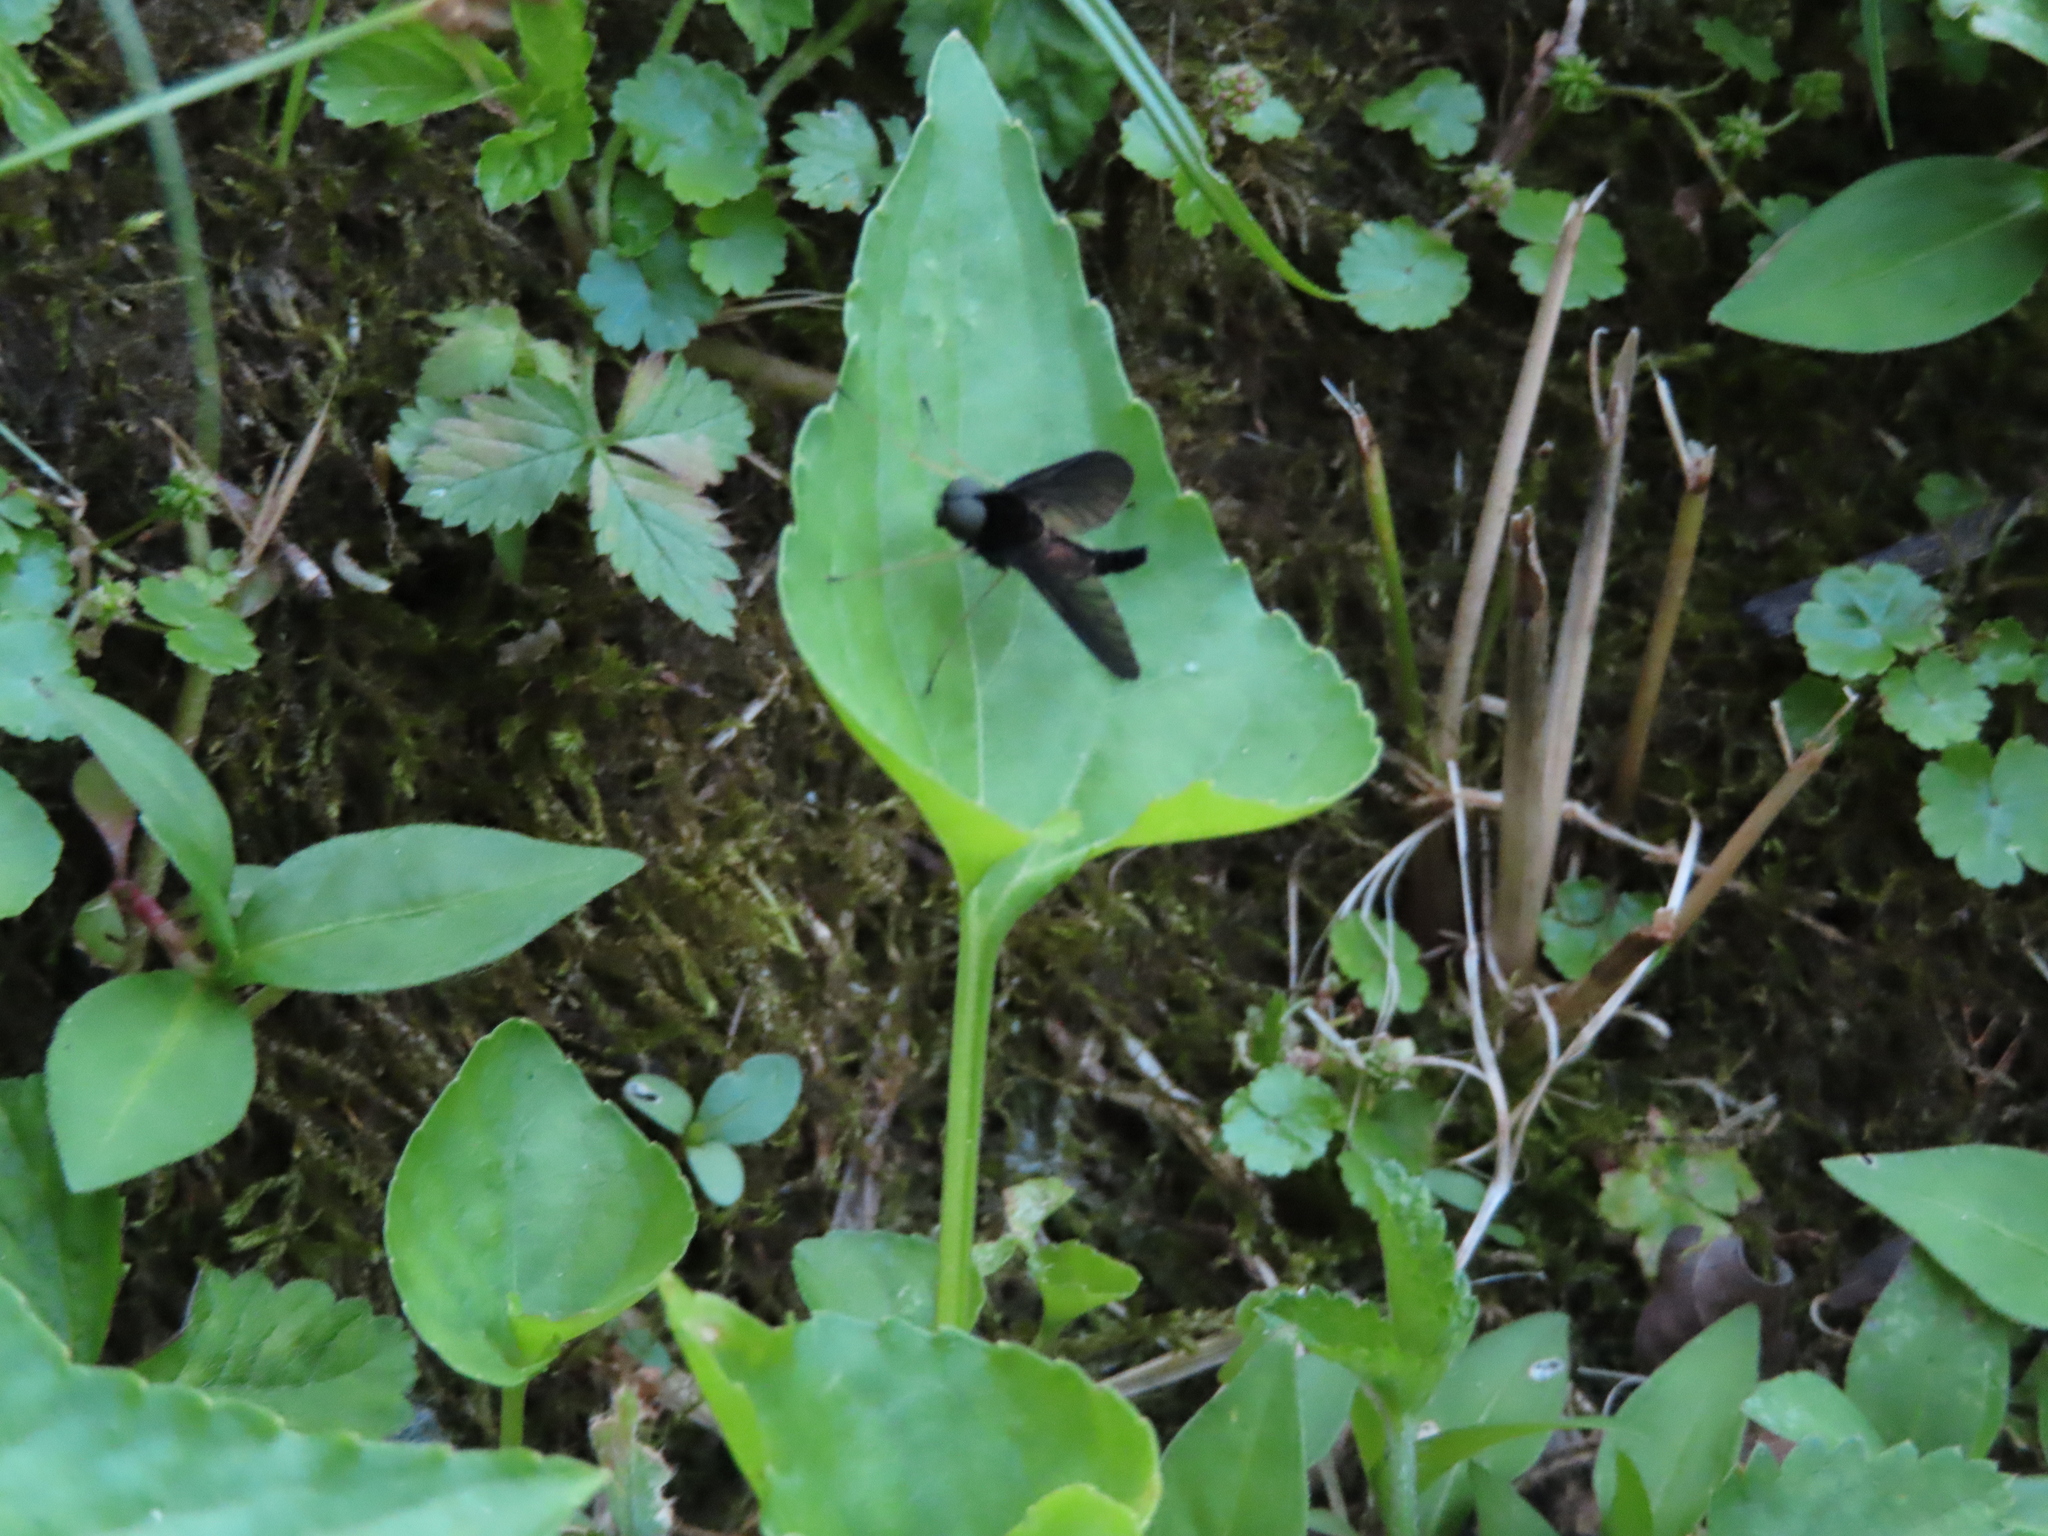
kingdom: Animalia
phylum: Arthropoda
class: Insecta
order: Diptera
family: Rhagionidae
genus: Chrysopilus
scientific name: Chrysopilus velutinus
